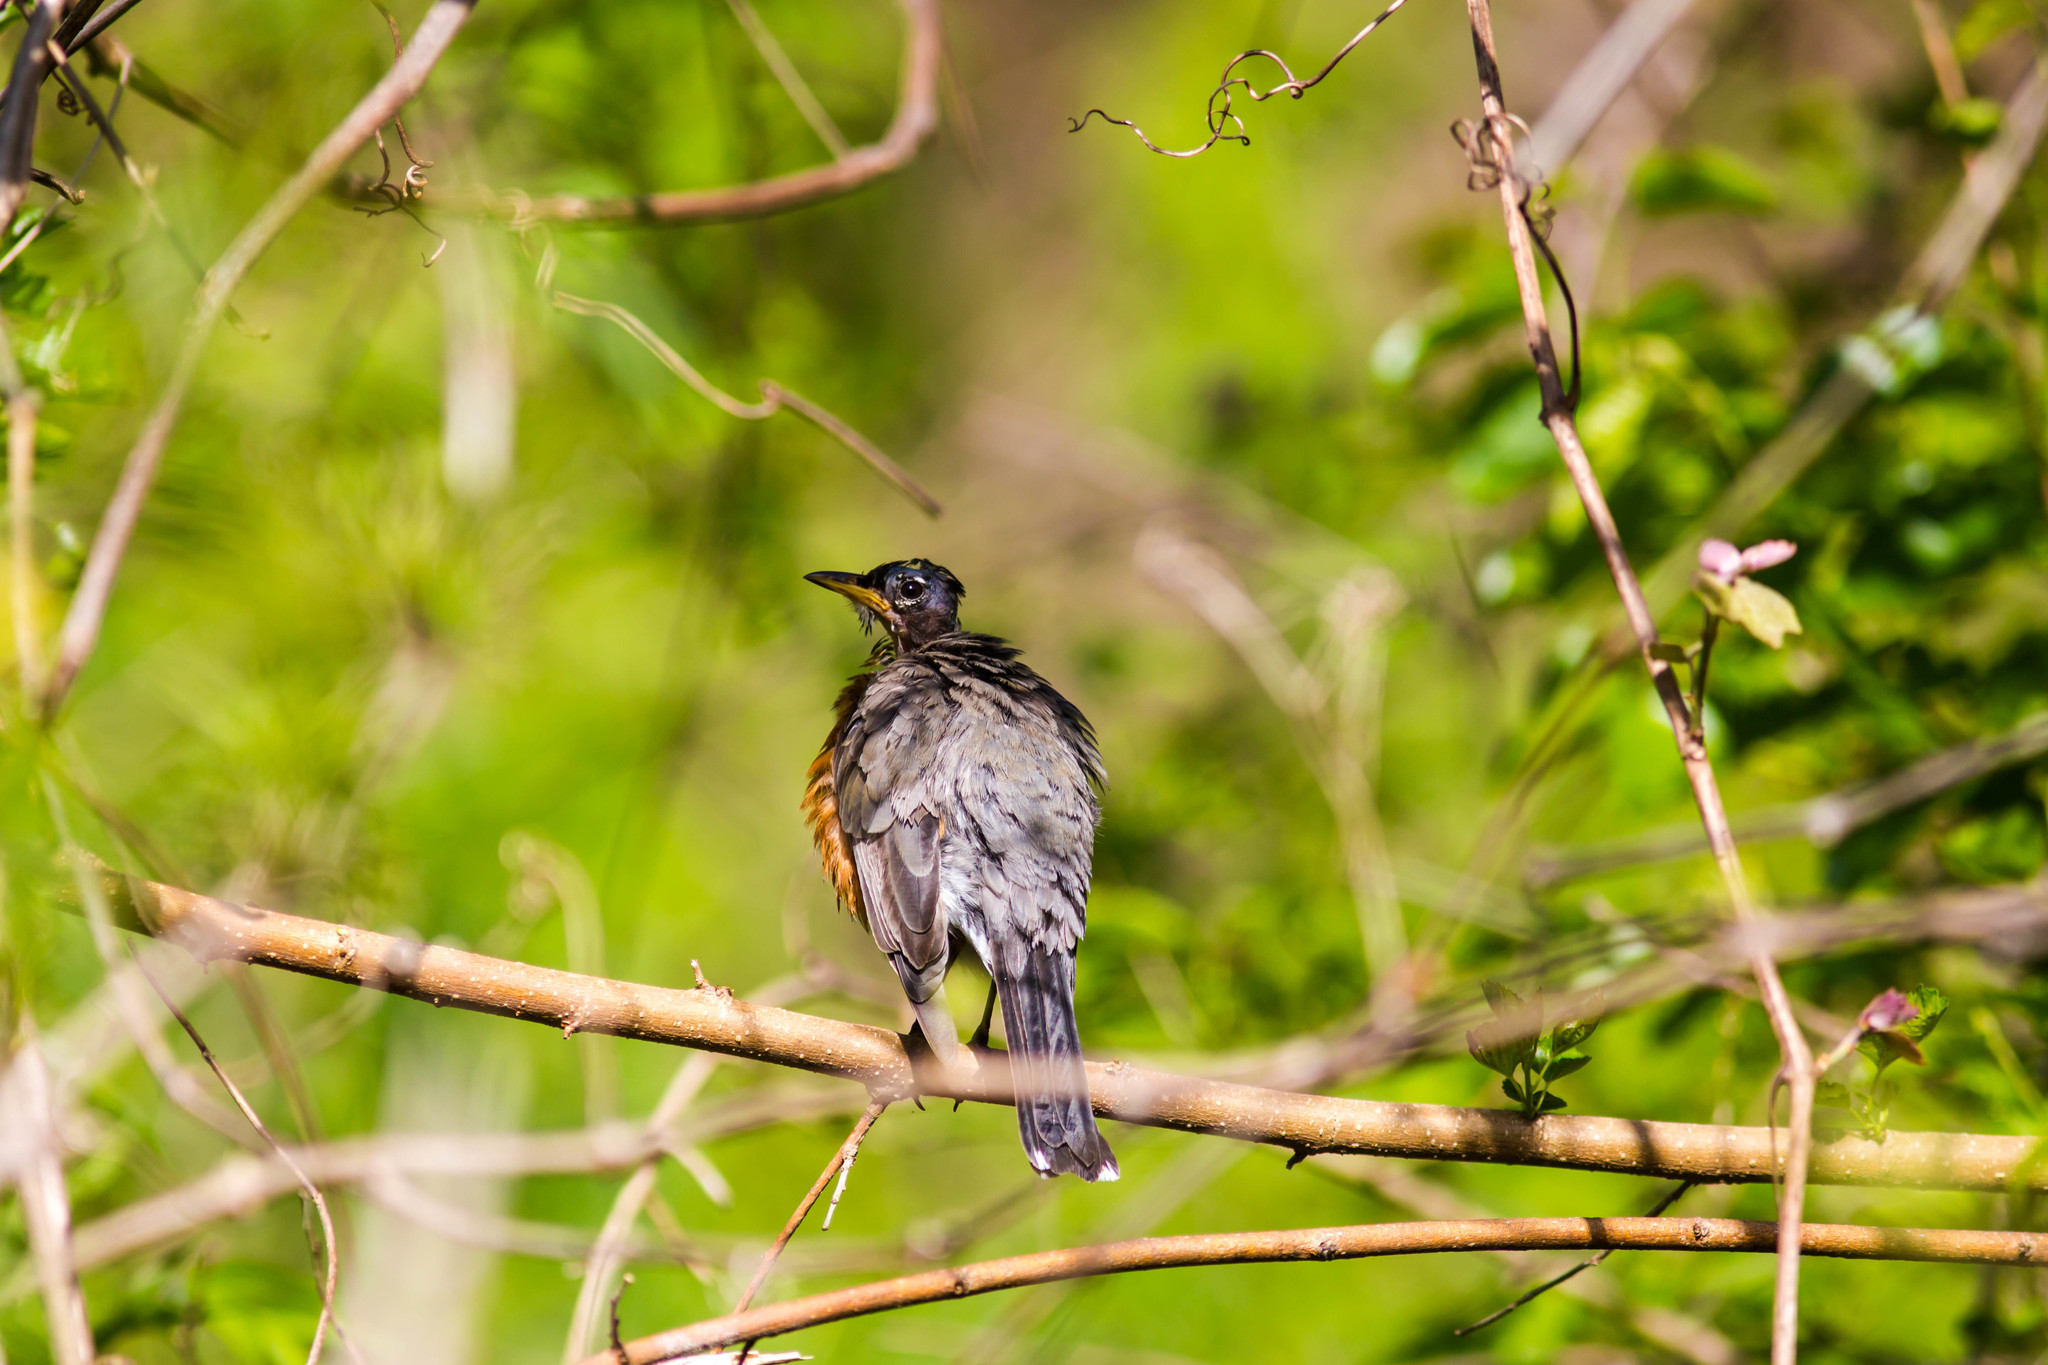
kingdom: Animalia
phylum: Chordata
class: Aves
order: Passeriformes
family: Turdidae
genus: Turdus
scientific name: Turdus migratorius
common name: American robin
